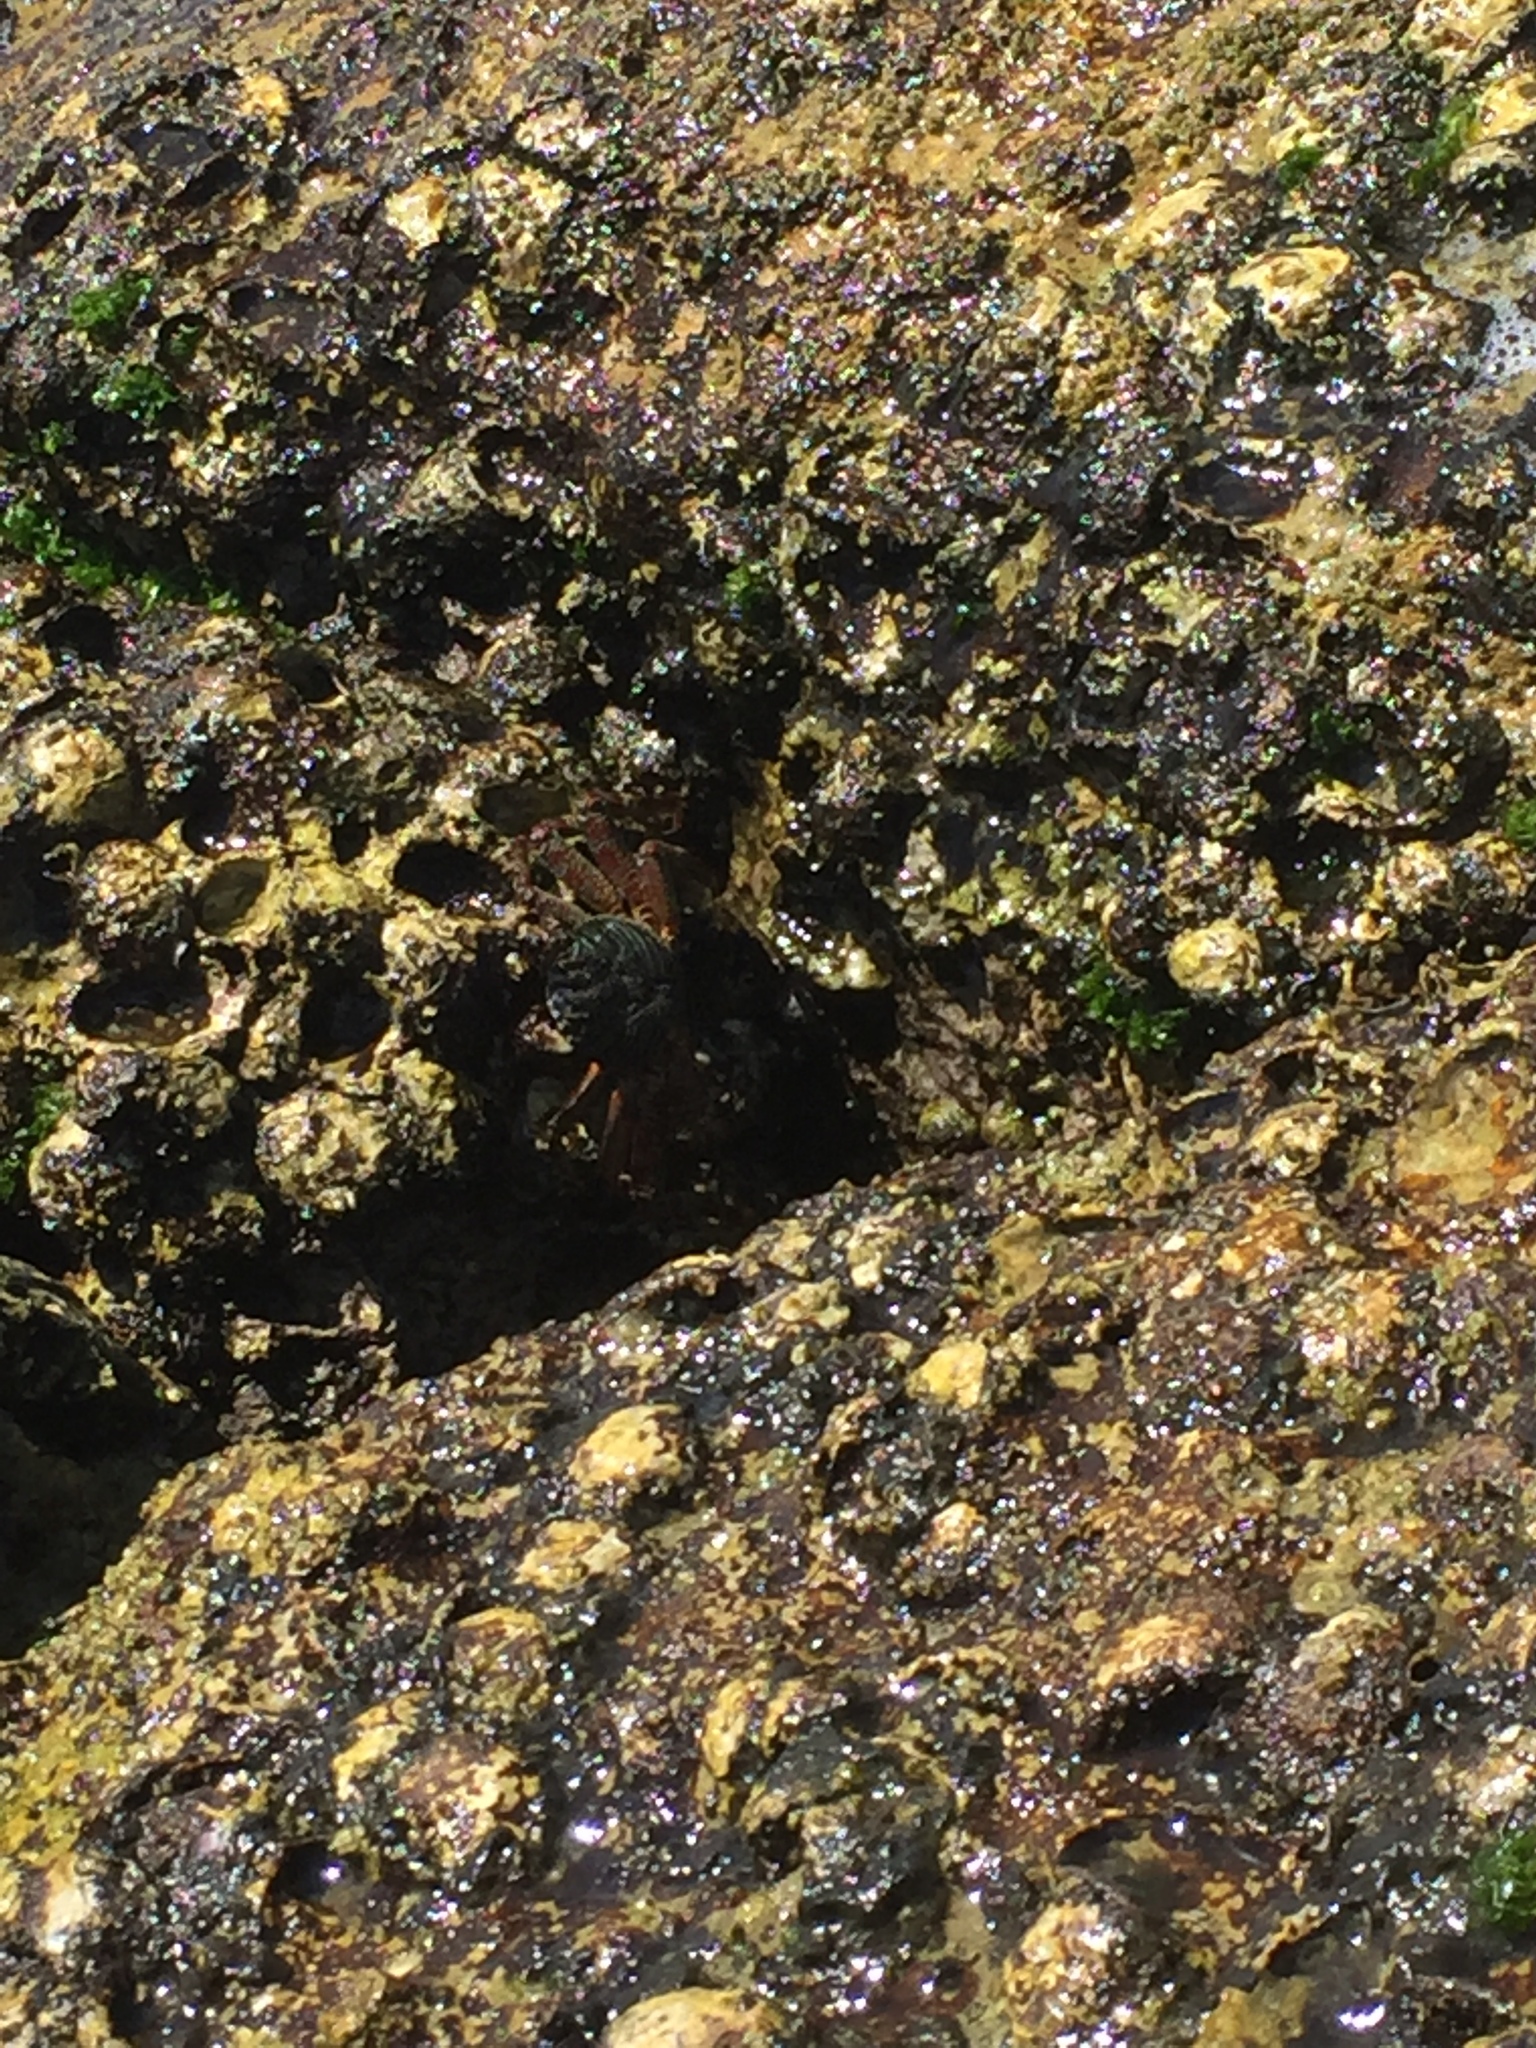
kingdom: Animalia
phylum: Arthropoda
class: Malacostraca
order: Decapoda
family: Grapsidae
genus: Grapsus
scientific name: Grapsus albolineatus
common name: Mottled lightfoot crab
